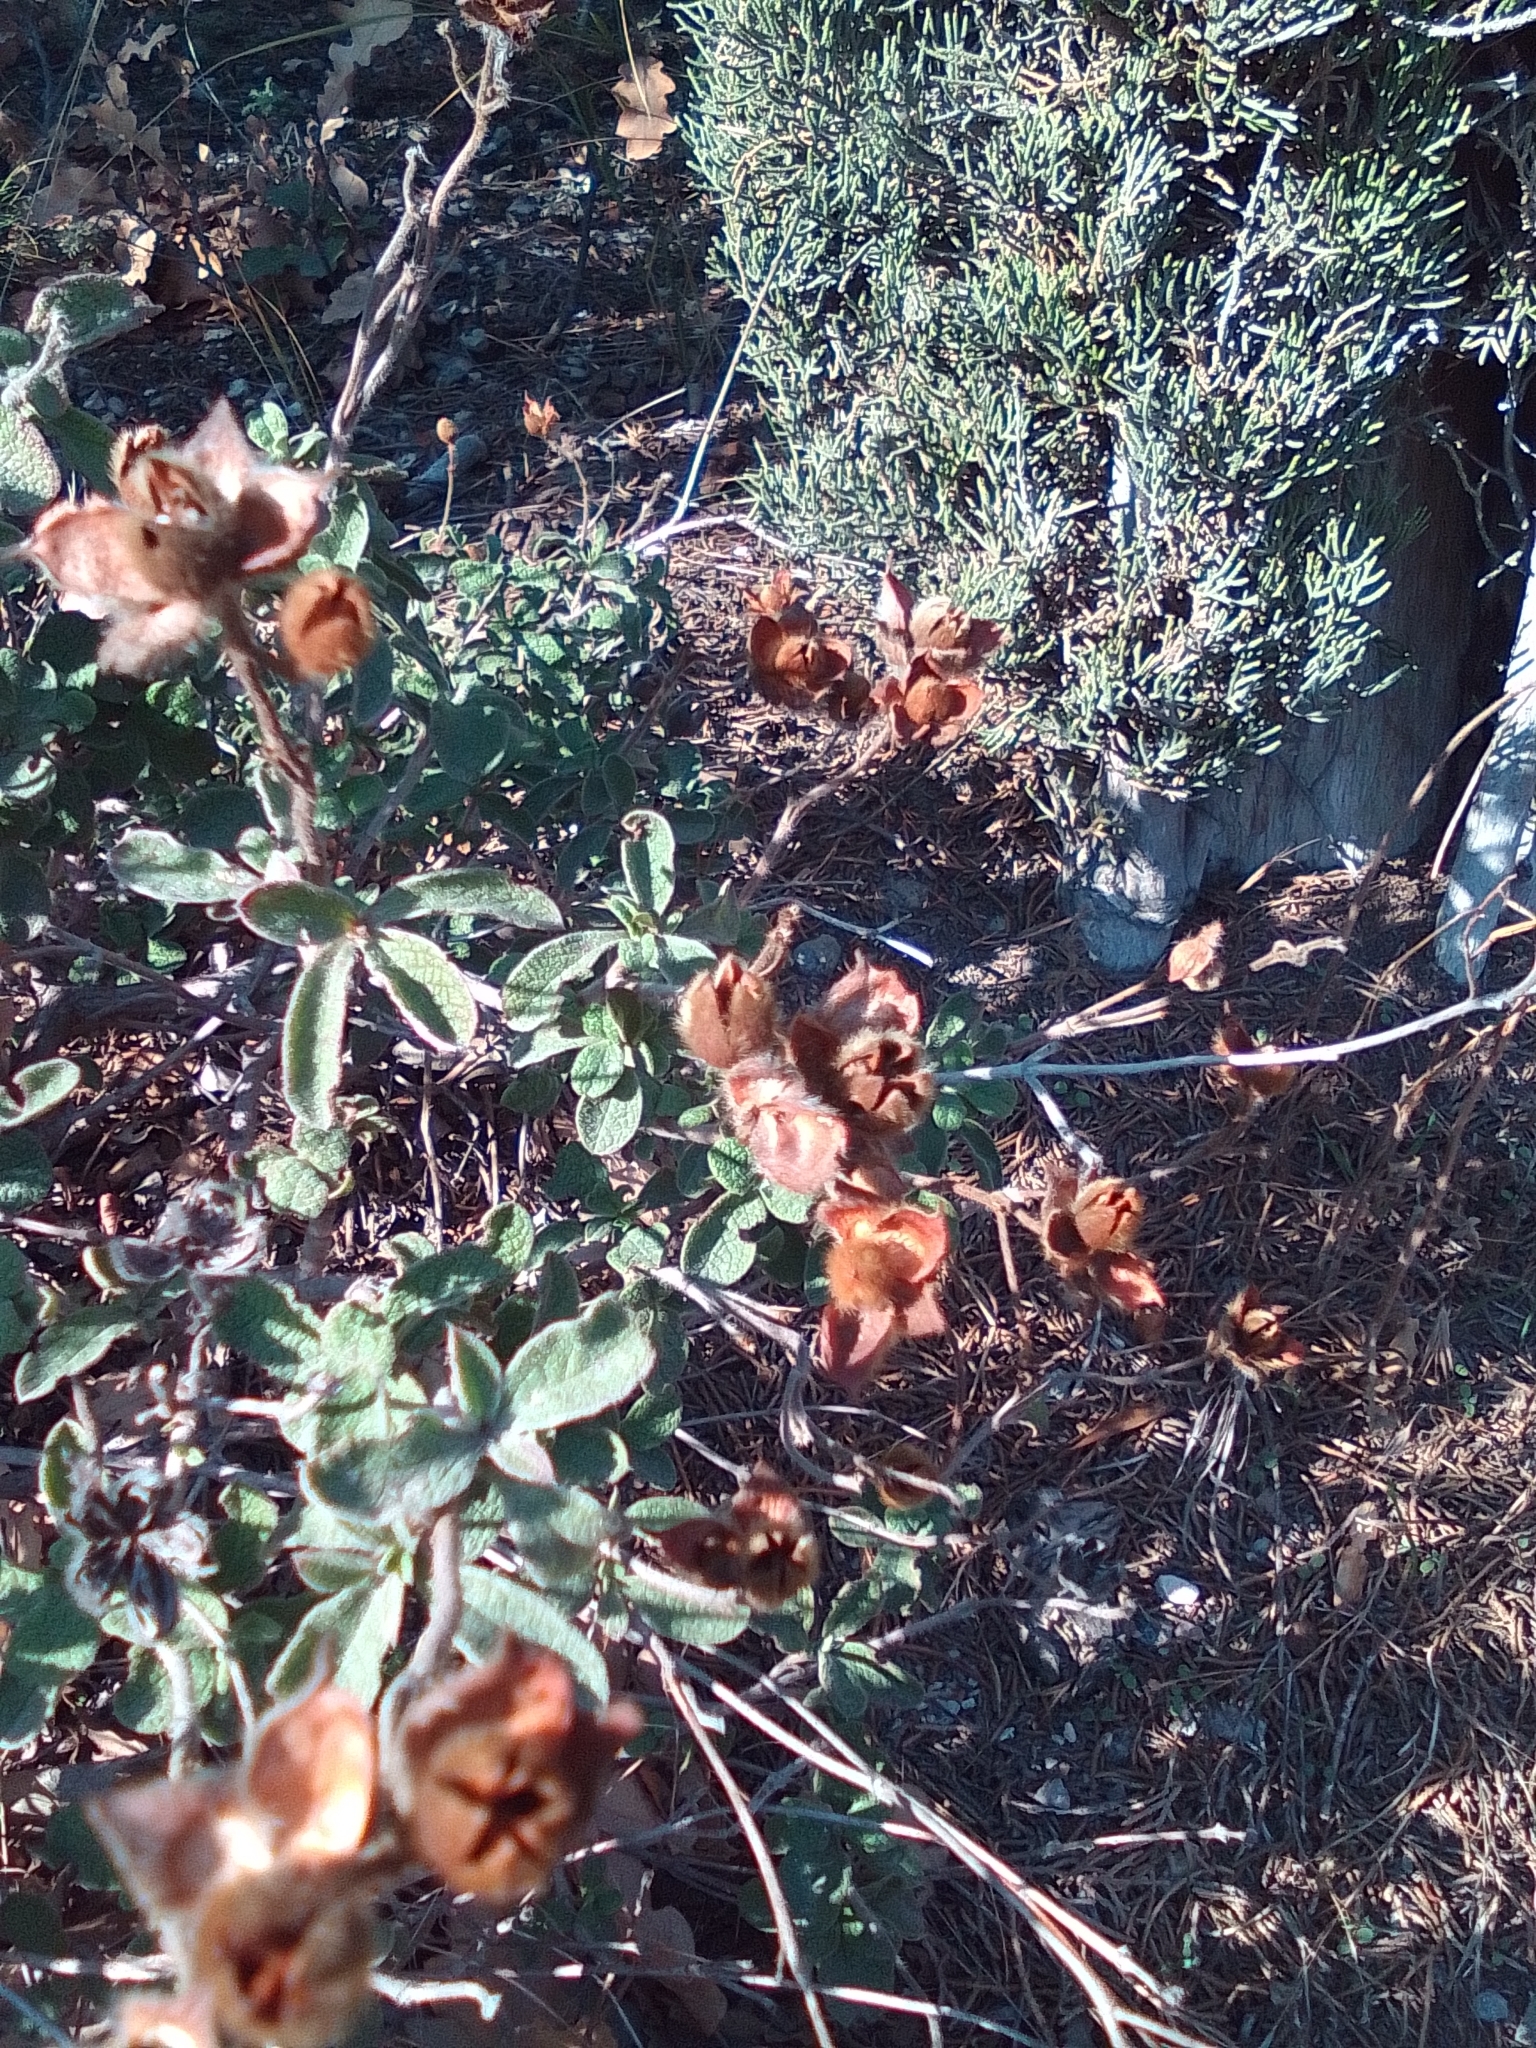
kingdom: Plantae
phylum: Tracheophyta
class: Magnoliopsida
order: Malvales
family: Cistaceae
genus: Cistus
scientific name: Cistus tauricus
